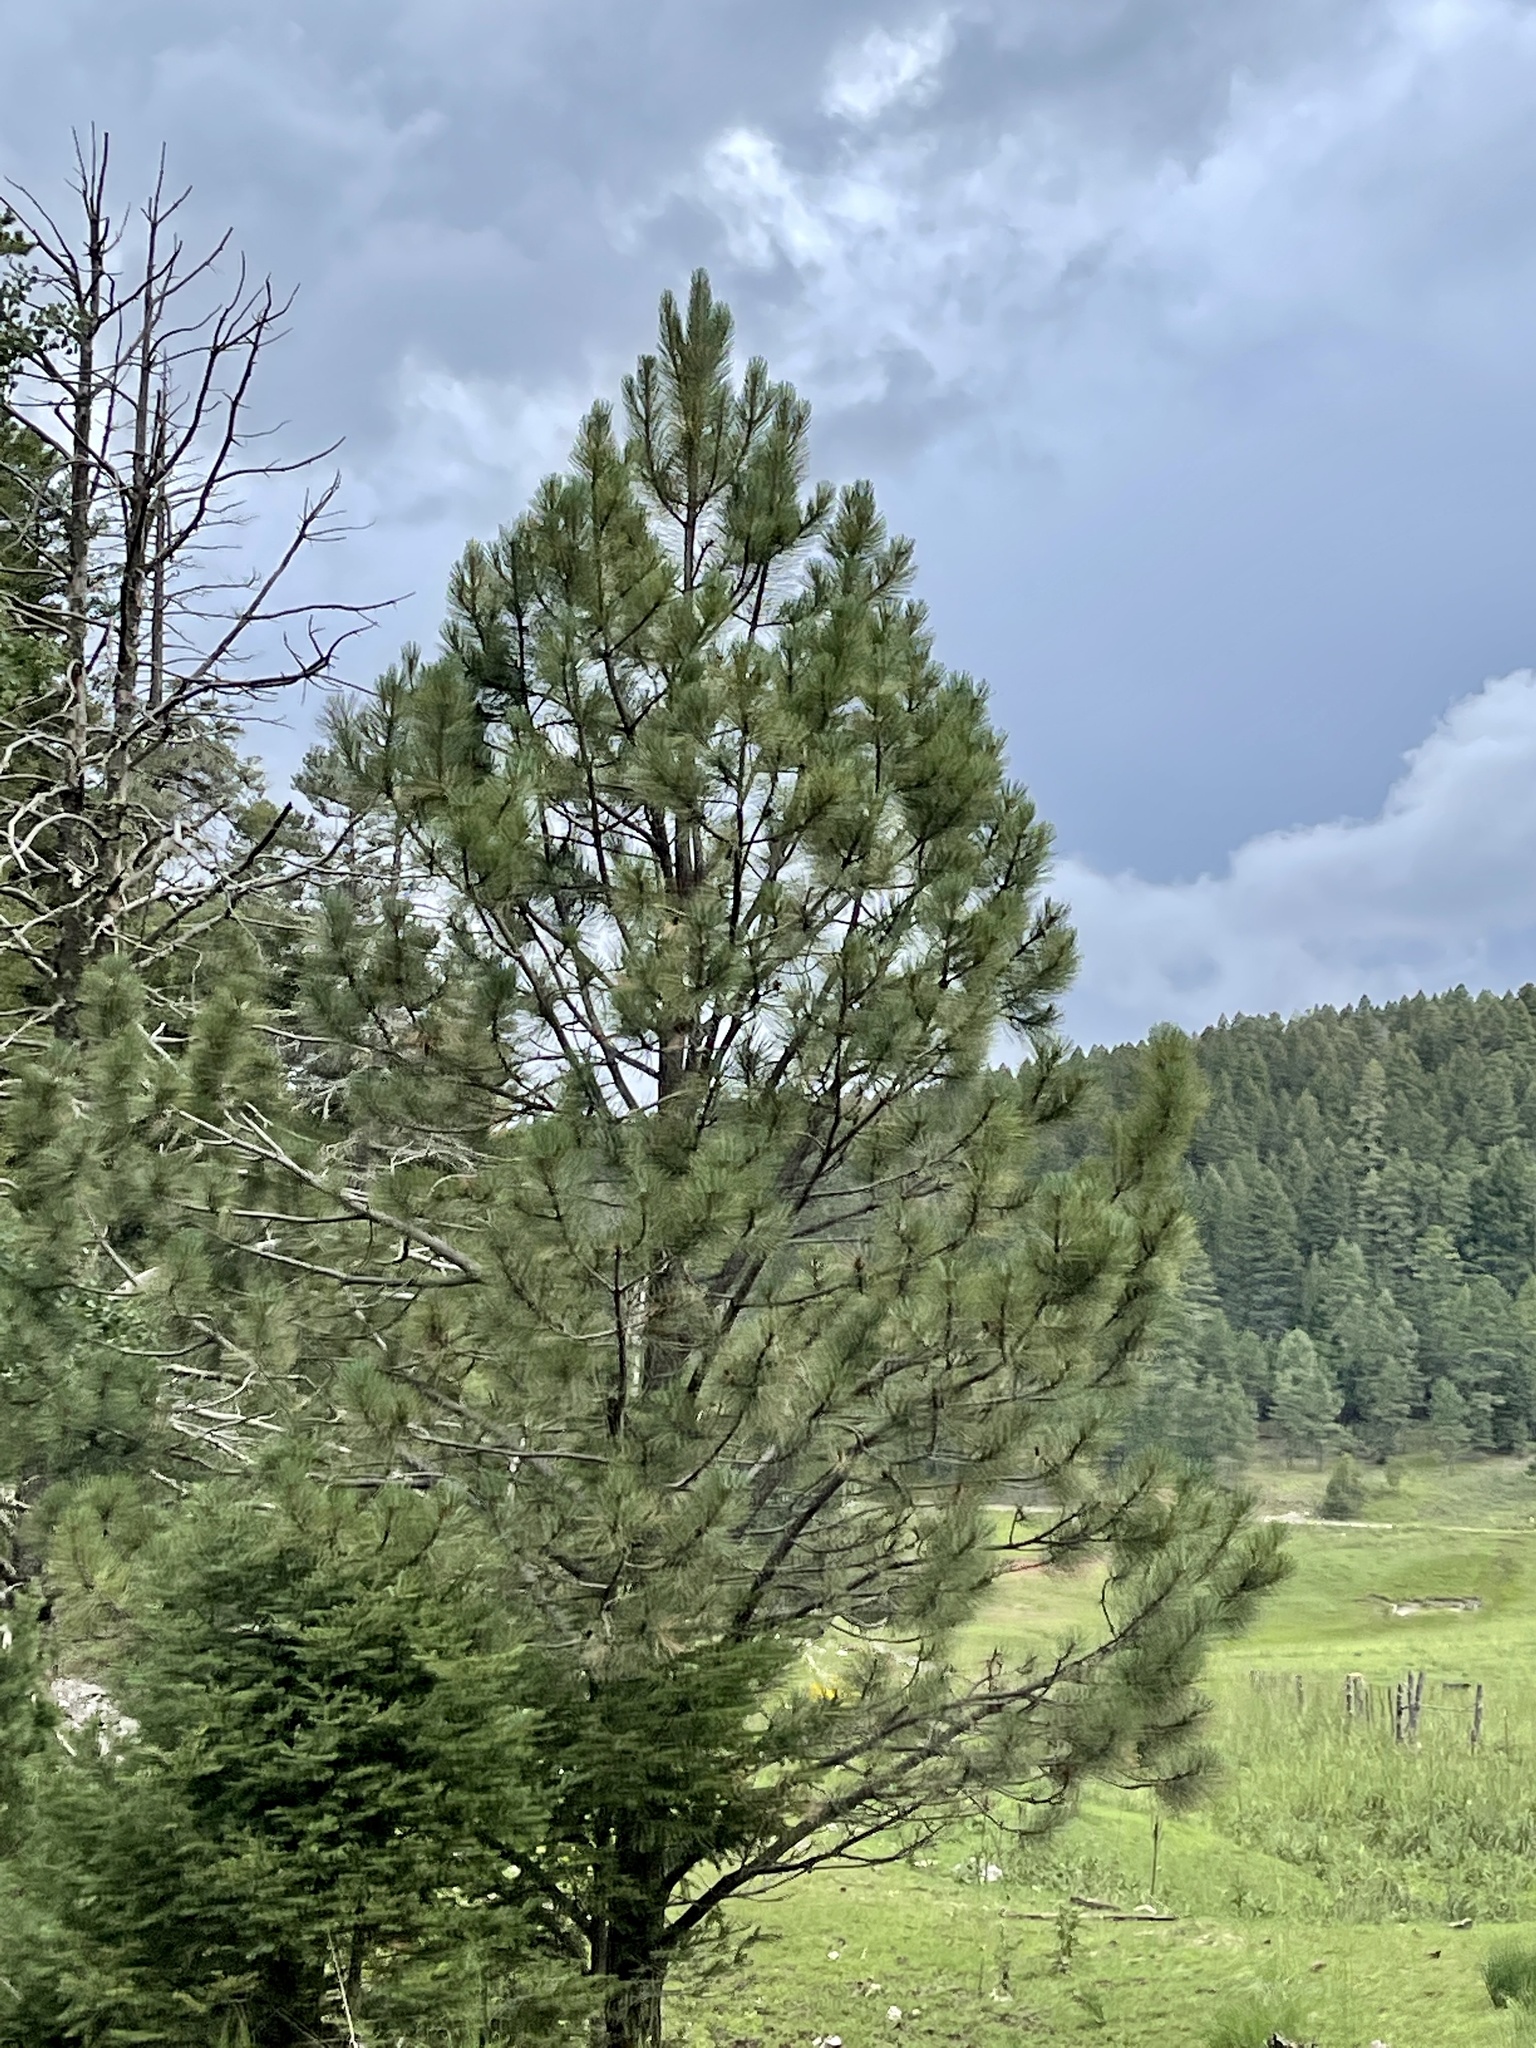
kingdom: Plantae
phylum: Tracheophyta
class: Pinopsida
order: Pinales
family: Pinaceae
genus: Pinus
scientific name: Pinus ponderosa
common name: Western yellow-pine
